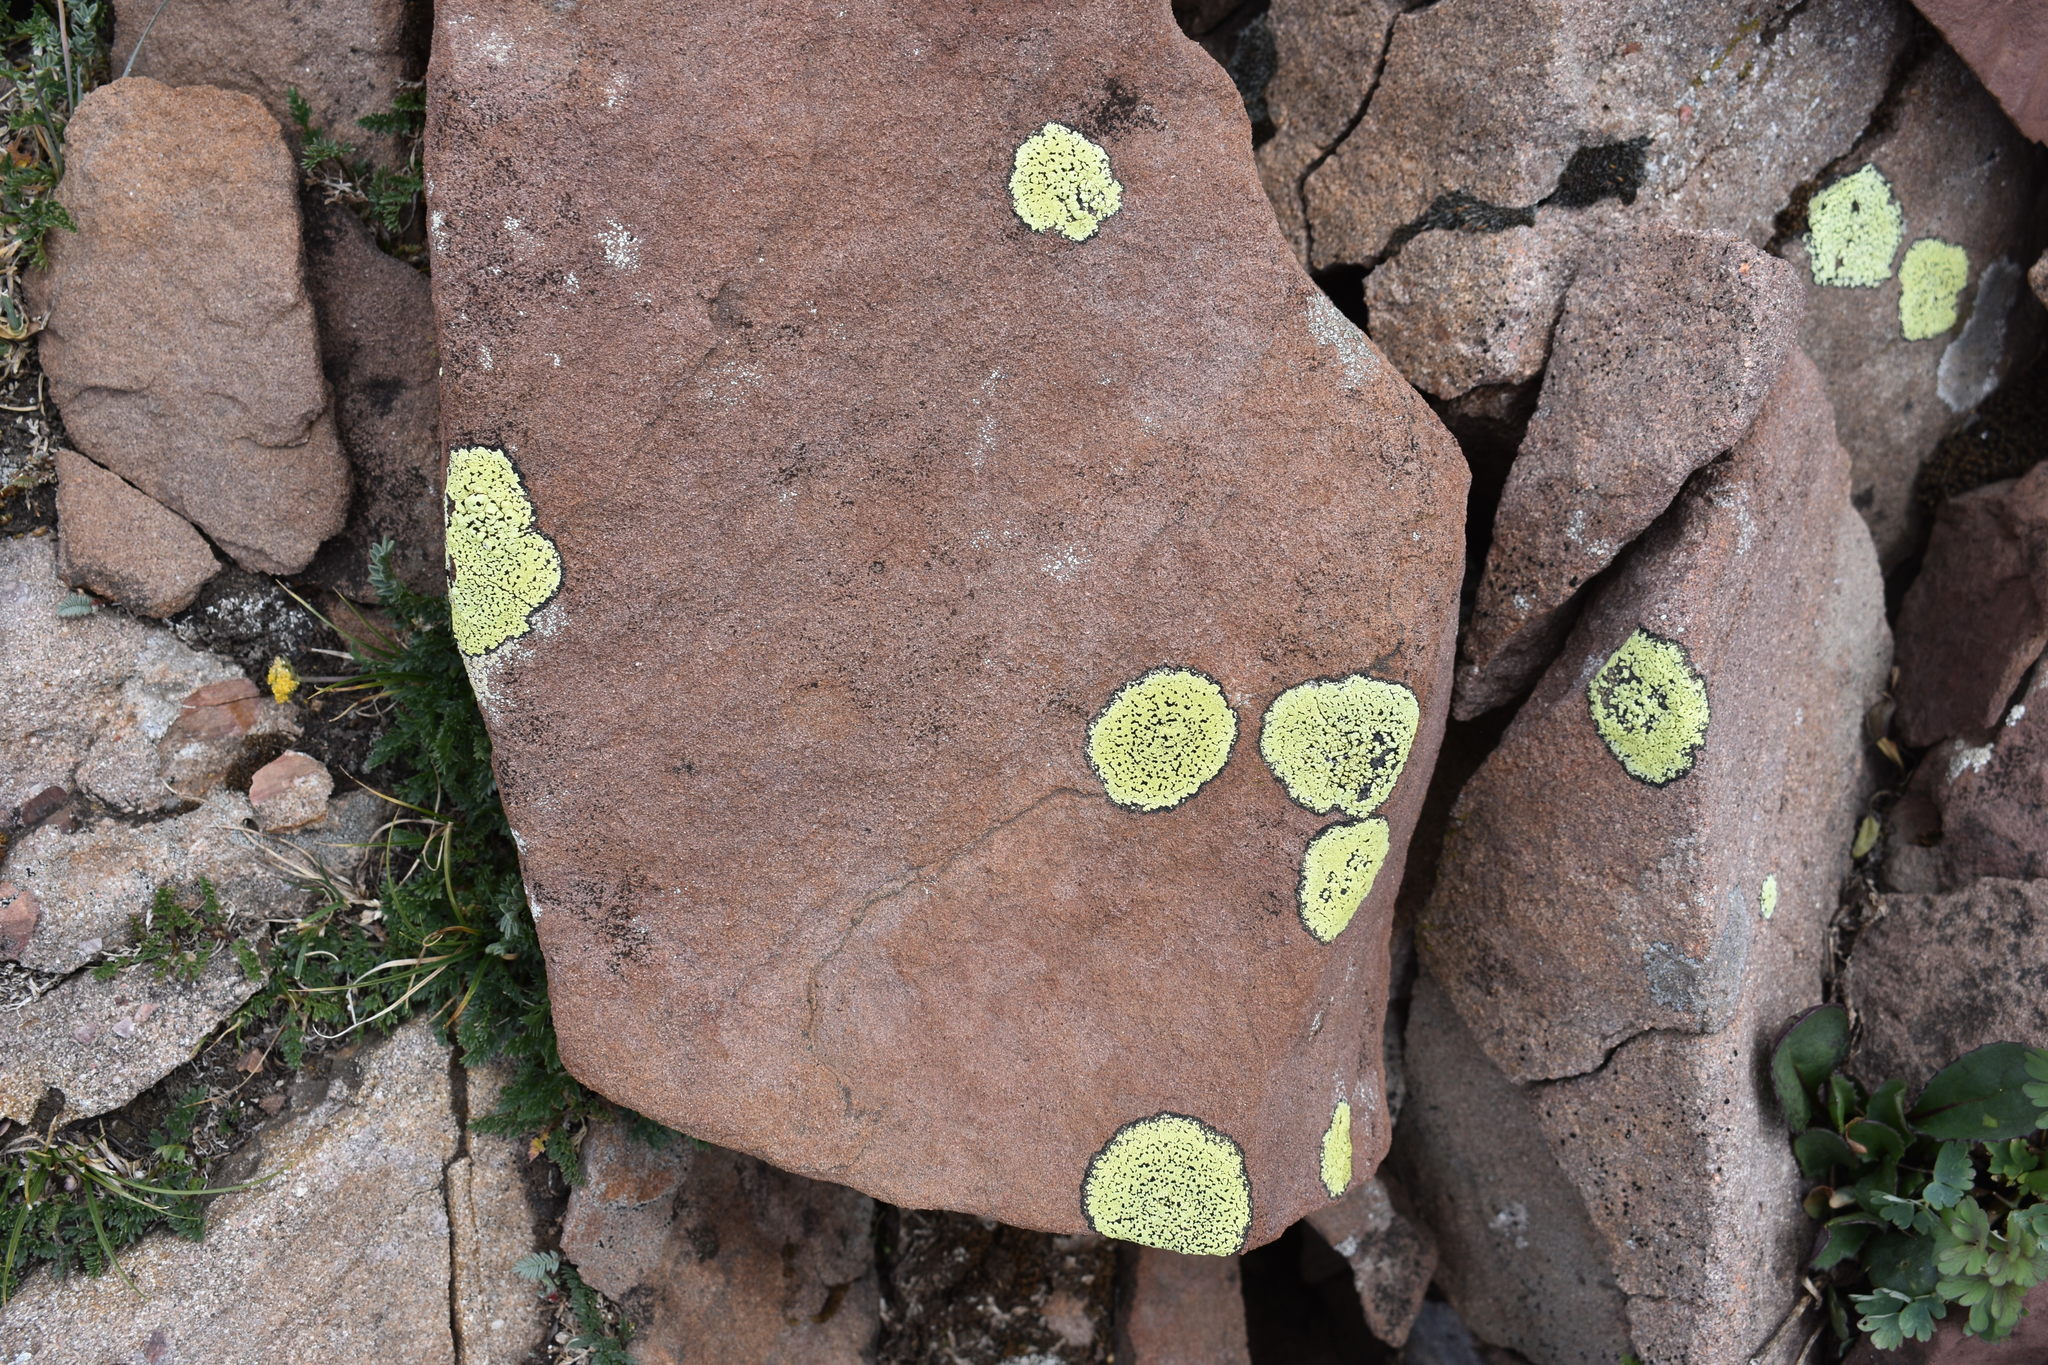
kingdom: Fungi
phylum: Ascomycota
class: Lecanoromycetes
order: Rhizocarpales
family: Rhizocarpaceae
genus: Rhizocarpon
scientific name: Rhizocarpon geographicum
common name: Yellow map lichen
